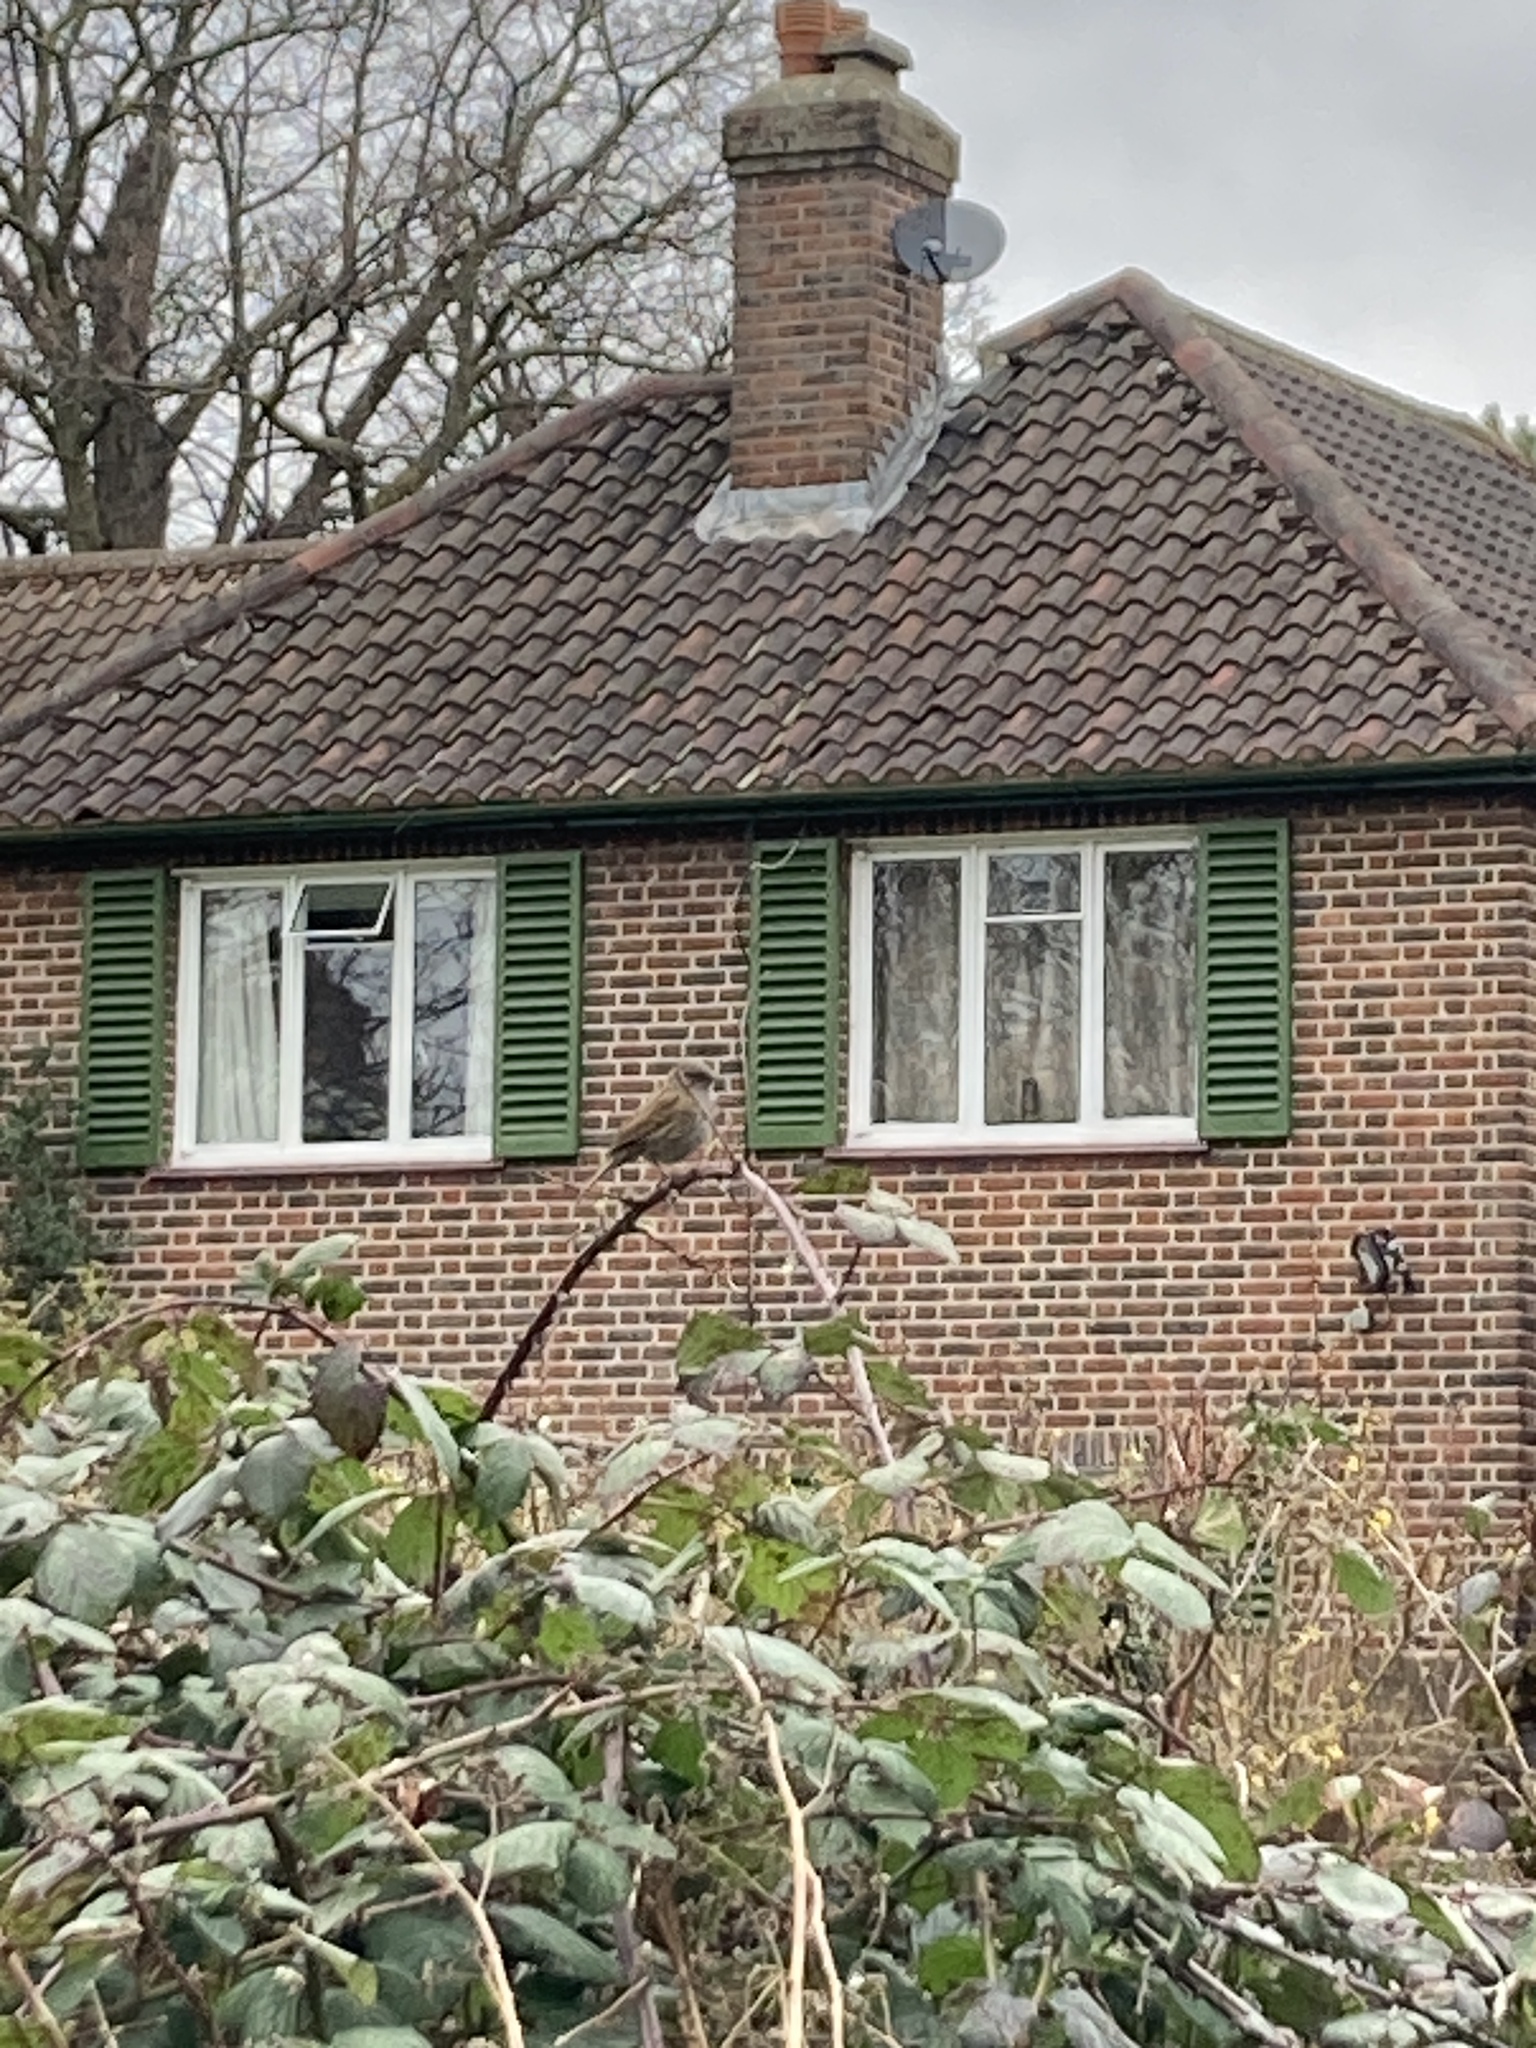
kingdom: Animalia
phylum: Chordata
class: Aves
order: Passeriformes
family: Prunellidae
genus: Prunella
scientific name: Prunella modularis
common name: Dunnock
